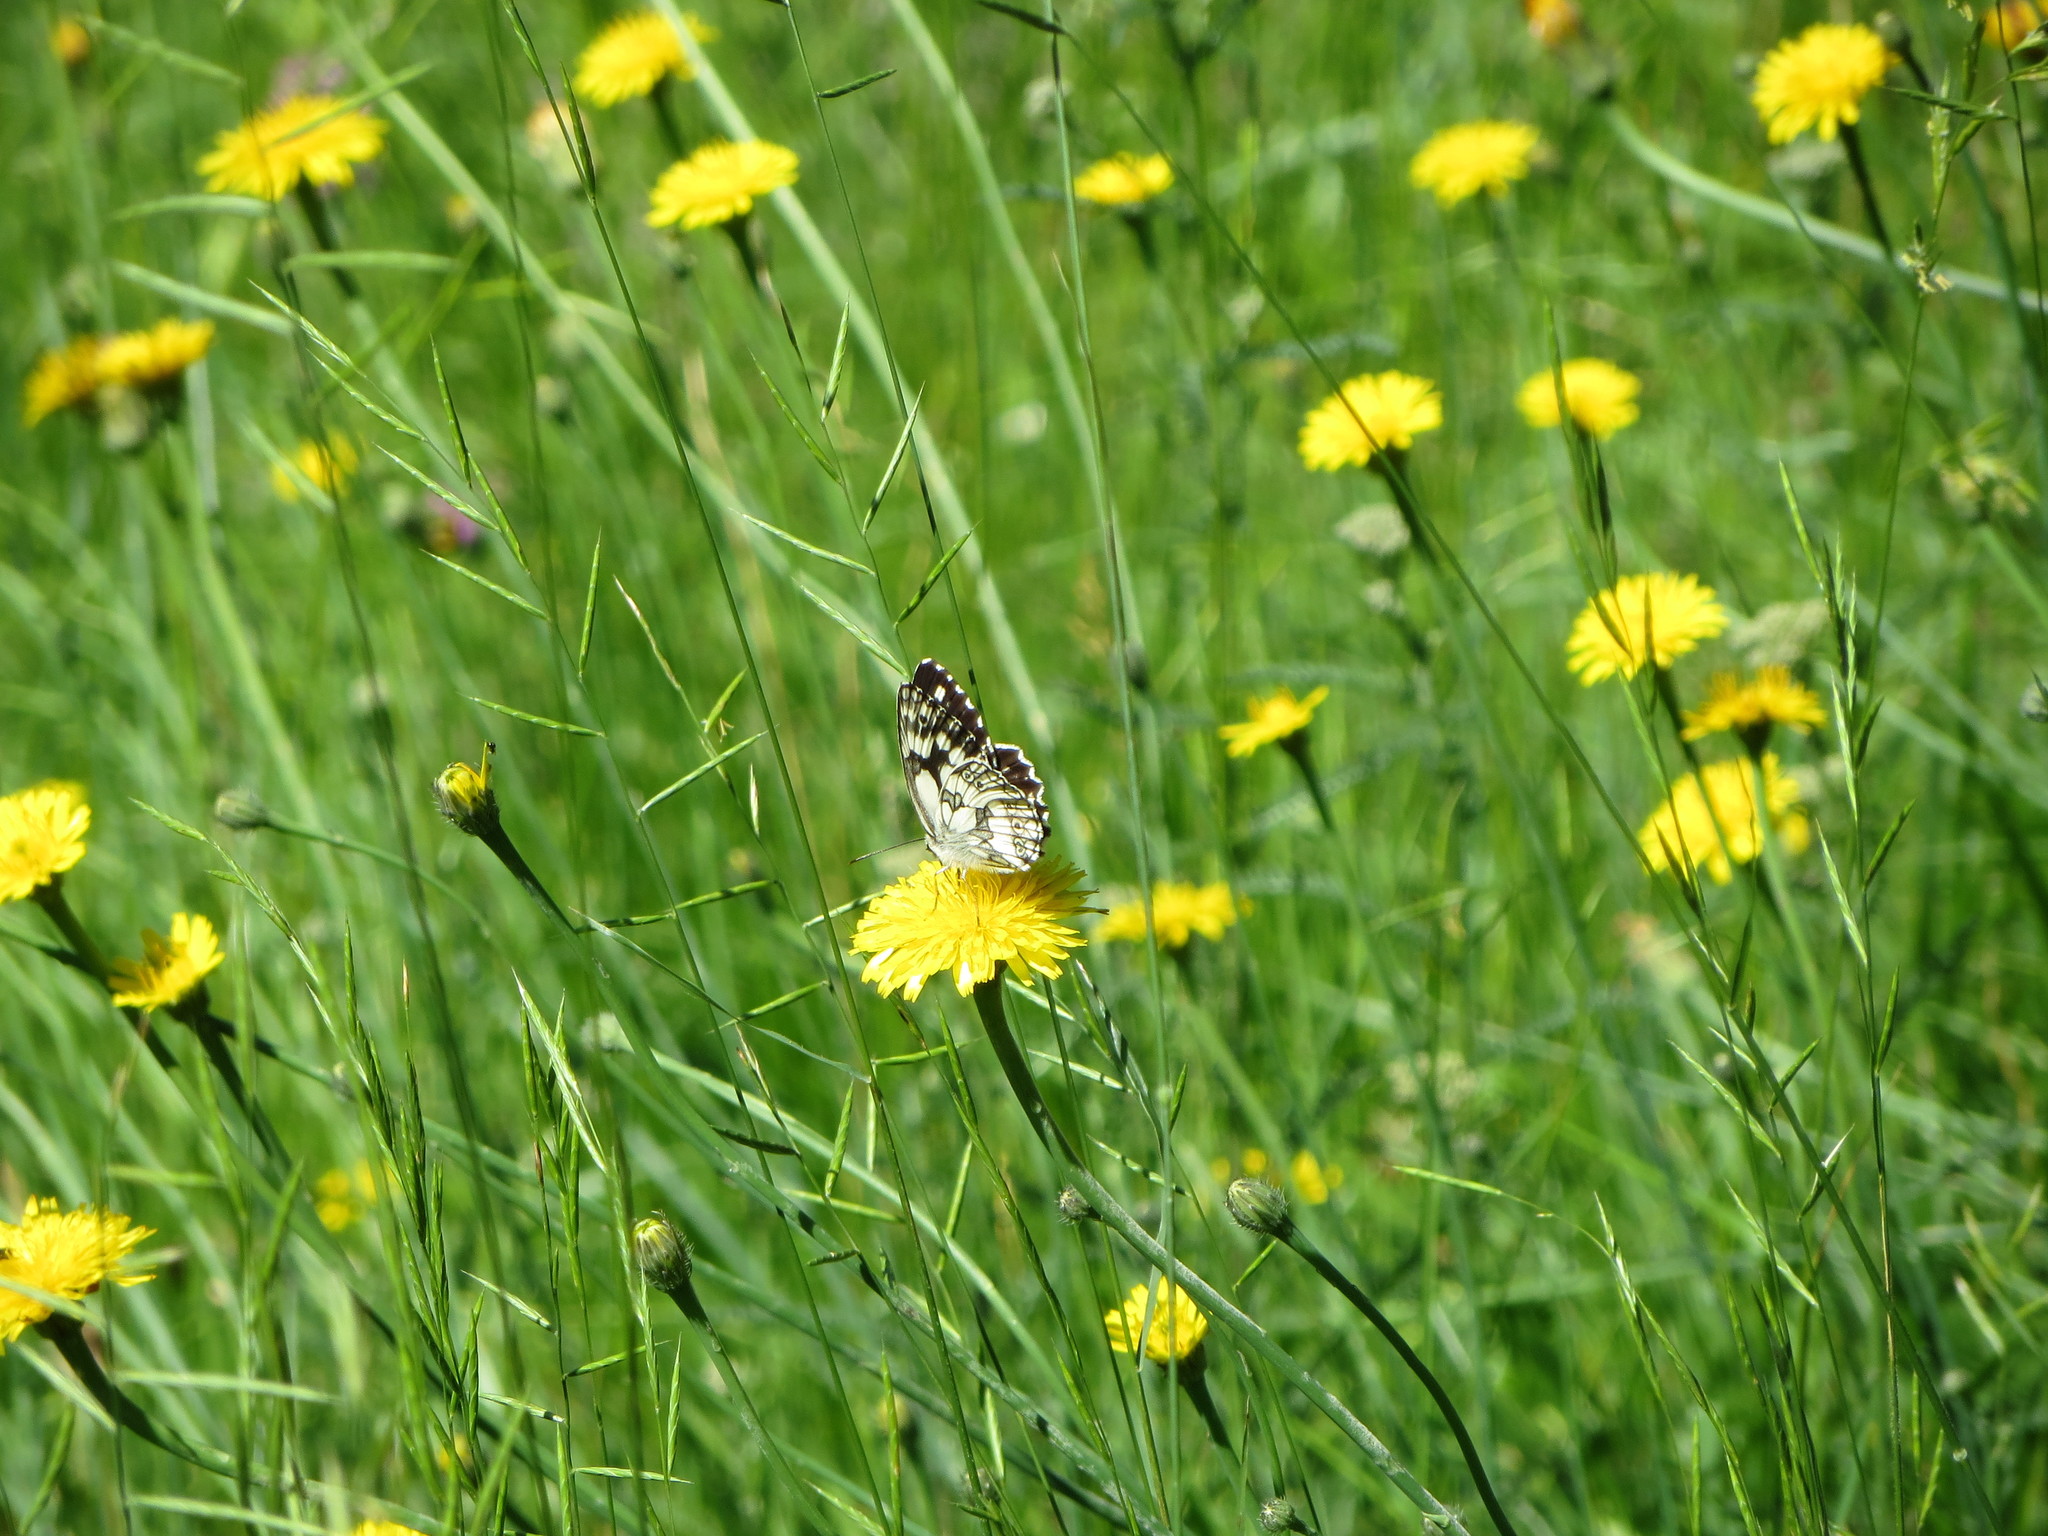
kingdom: Animalia
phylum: Arthropoda
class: Insecta
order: Lepidoptera
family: Nymphalidae
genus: Melanargia
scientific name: Melanargia galathea
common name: Marbled white
